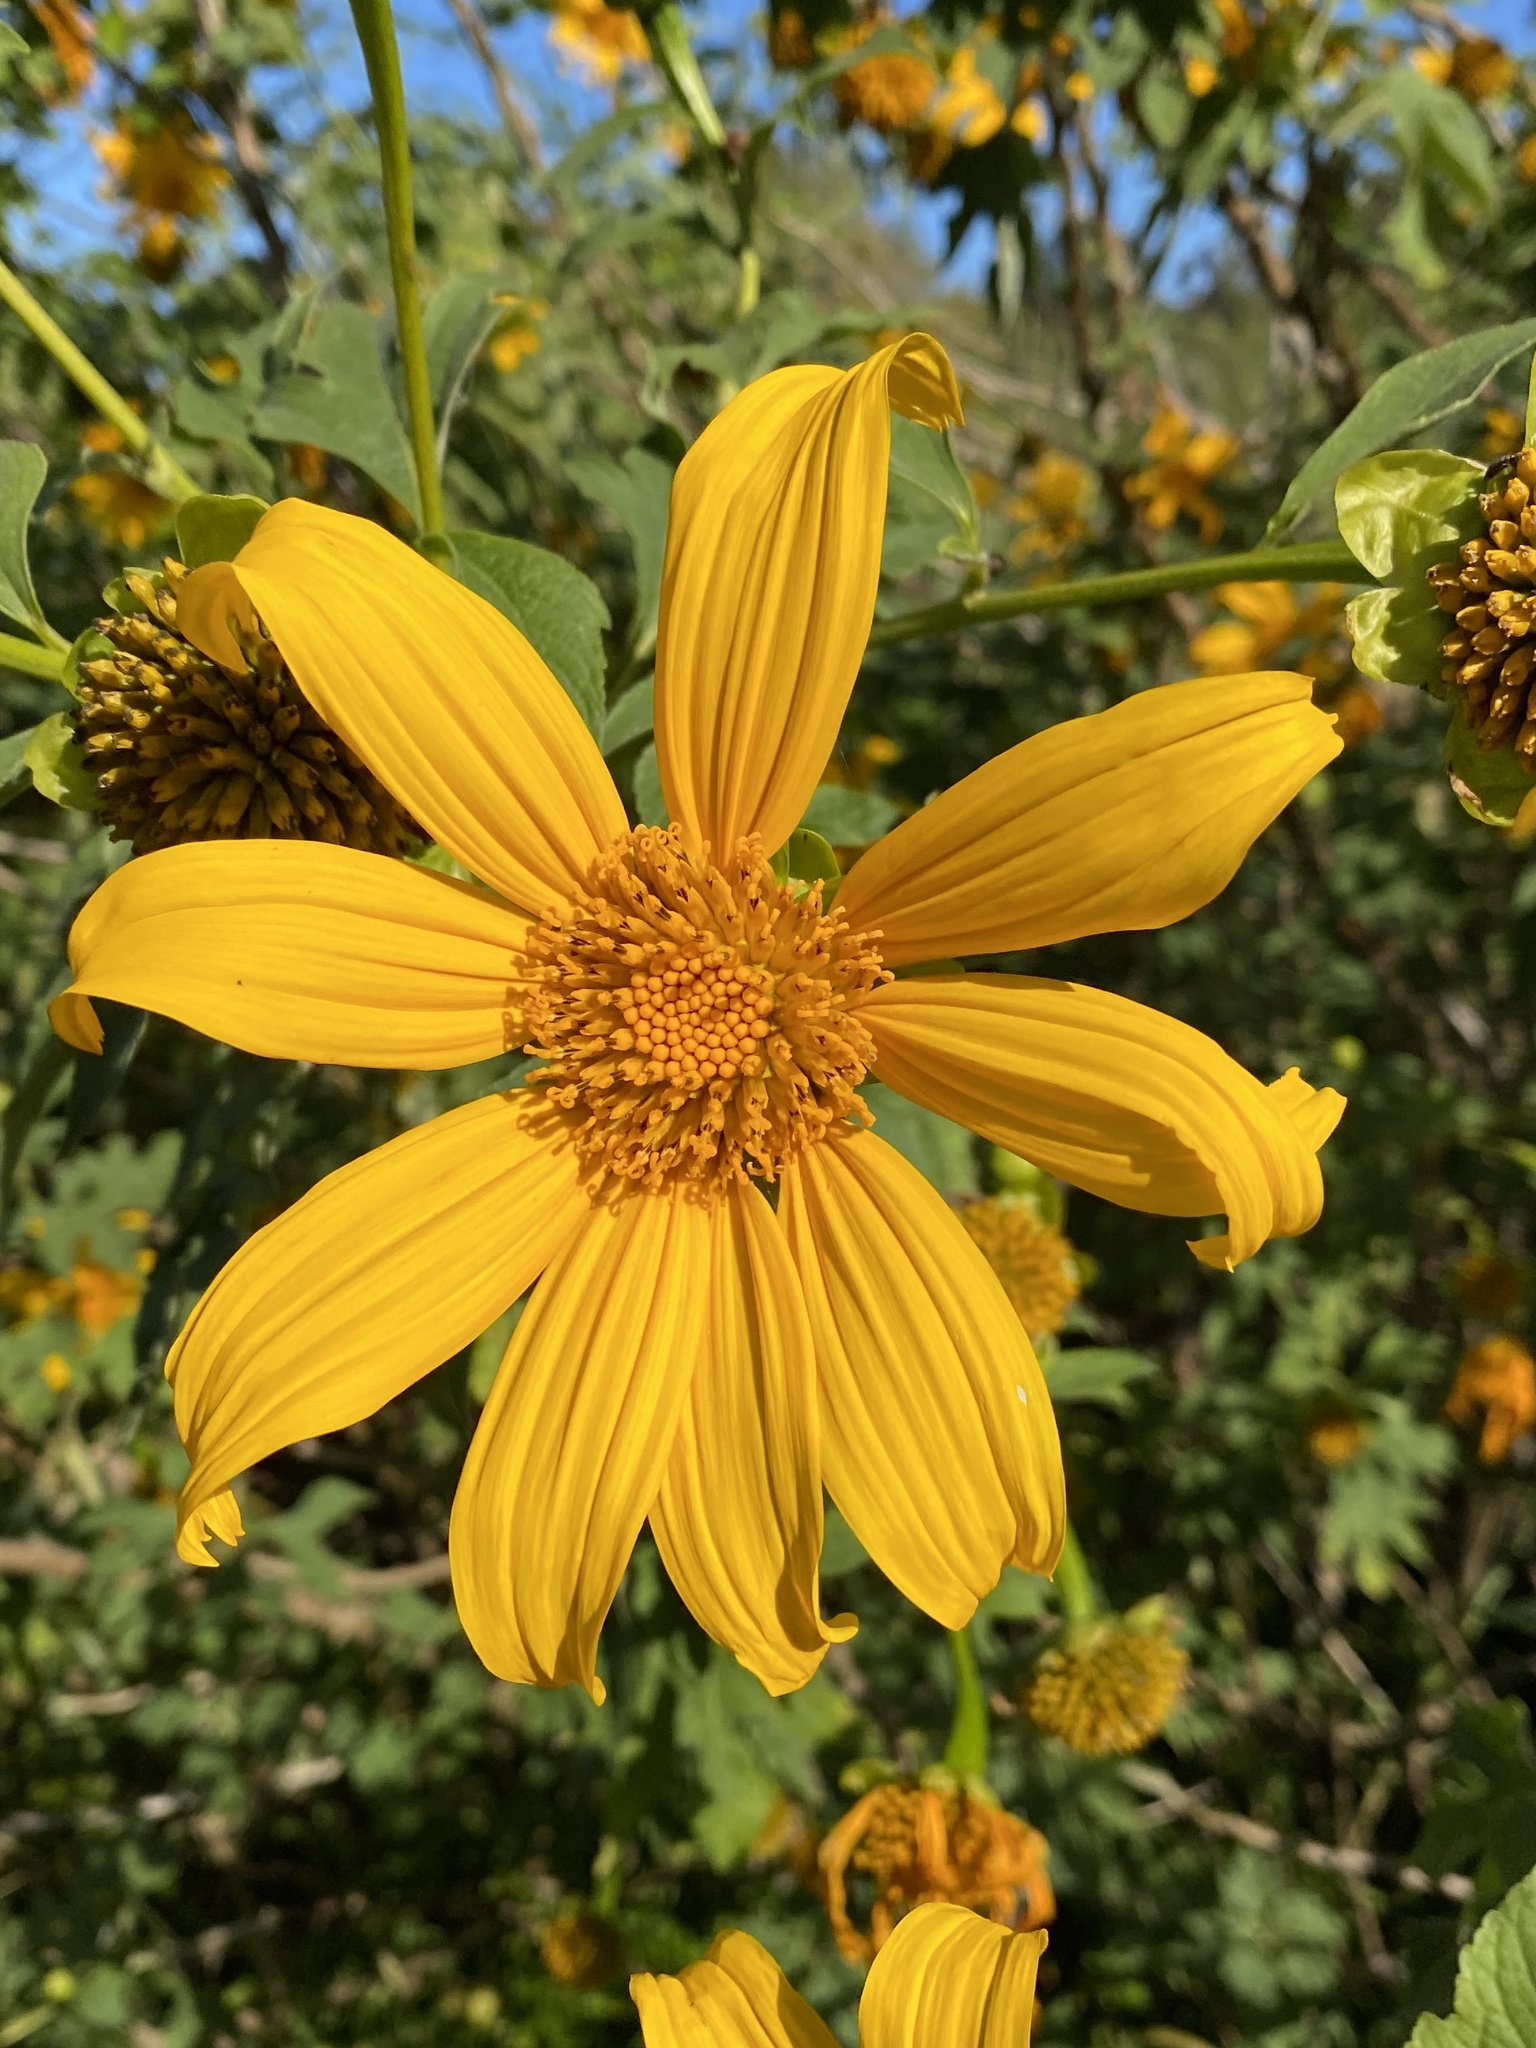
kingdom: Plantae
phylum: Tracheophyta
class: Magnoliopsida
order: Asterales
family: Asteraceae
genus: Tithonia
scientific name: Tithonia diversifolia
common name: Tree marigold
